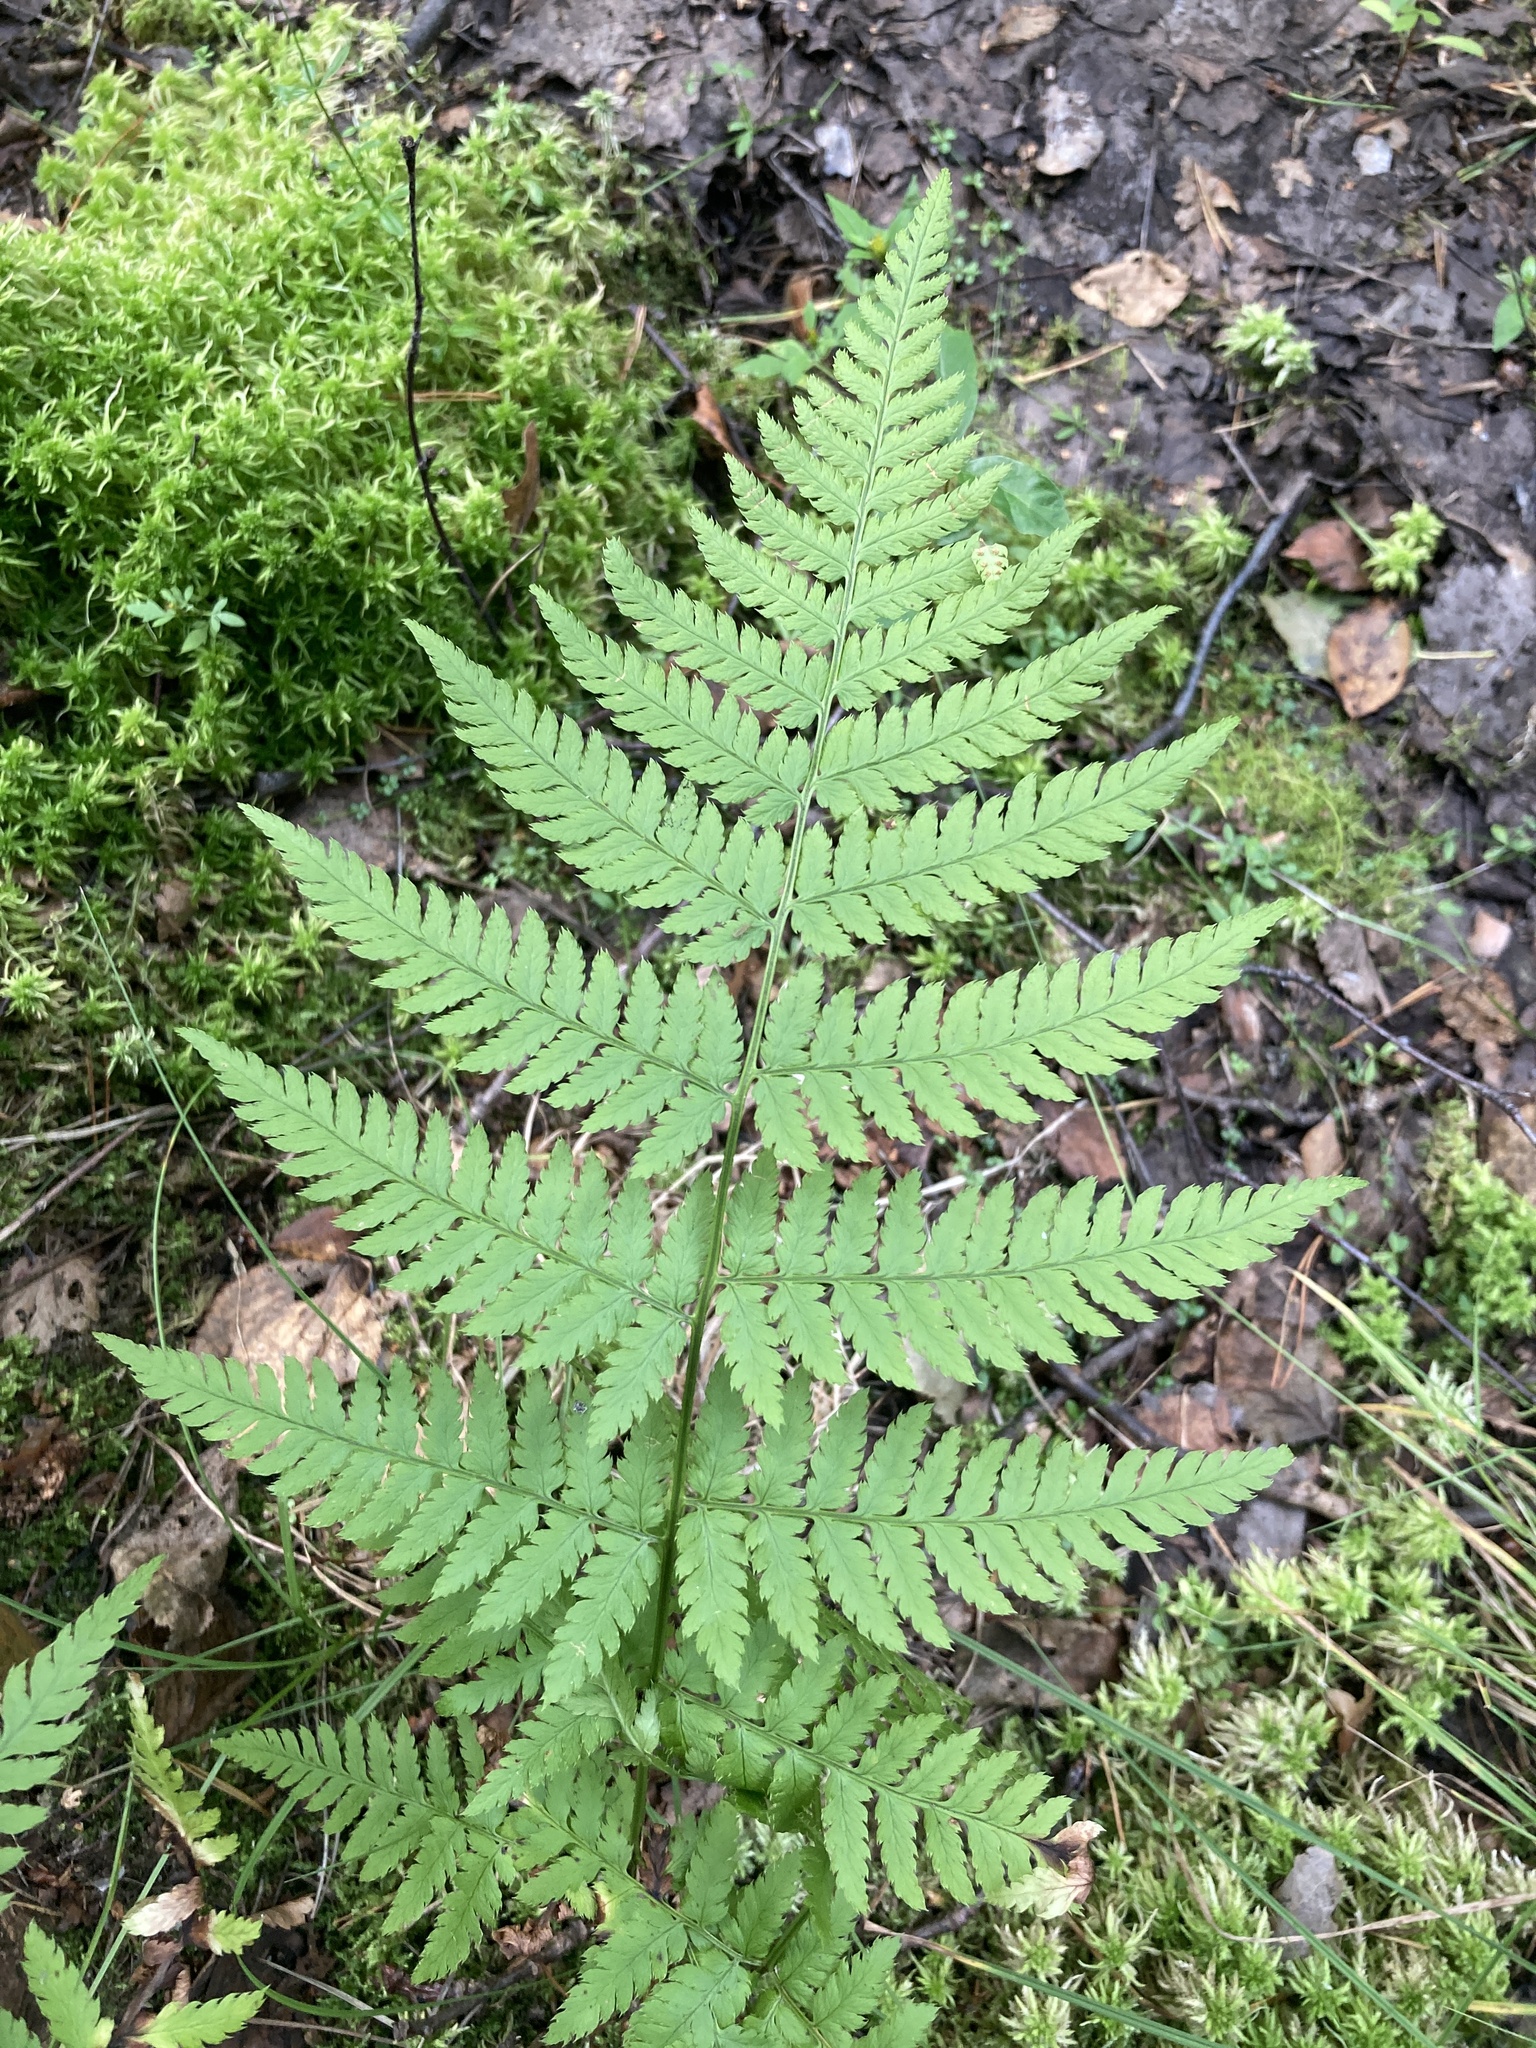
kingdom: Plantae
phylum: Tracheophyta
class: Polypodiopsida
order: Polypodiales
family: Dryopteridaceae
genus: Dryopteris
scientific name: Dryopteris carthusiana
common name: Narrow buckler-fern
